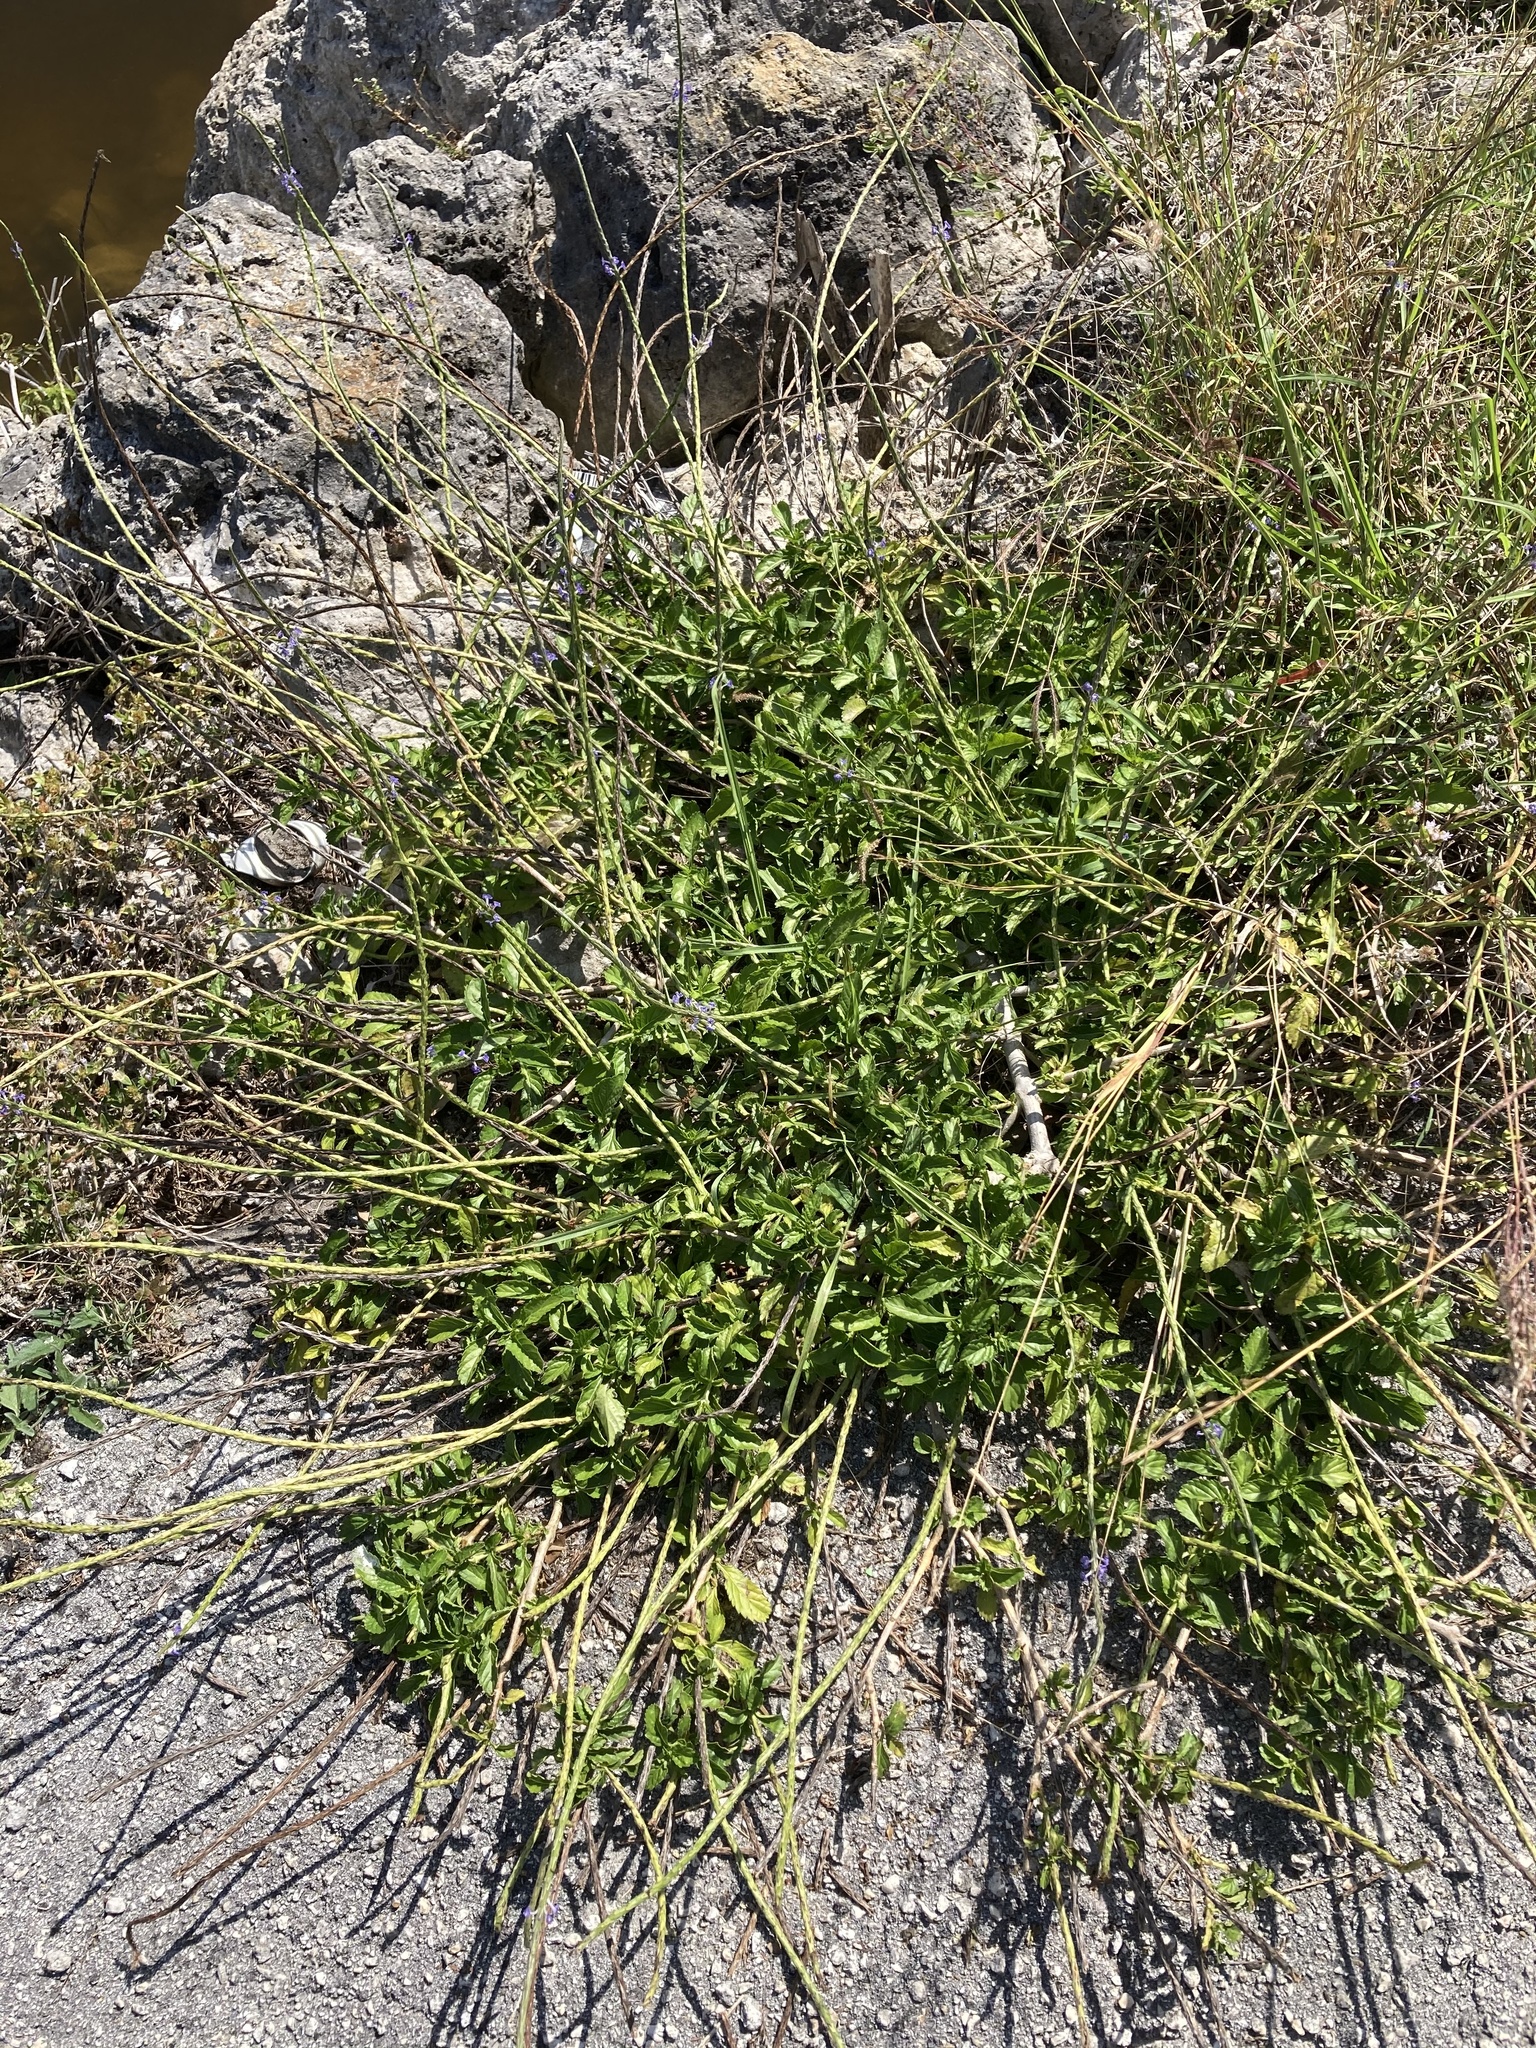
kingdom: Plantae
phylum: Tracheophyta
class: Magnoliopsida
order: Lamiales
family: Verbenaceae
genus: Stachytarpheta
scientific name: Stachytarpheta jamaicensis
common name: Light-blue snakeweed
